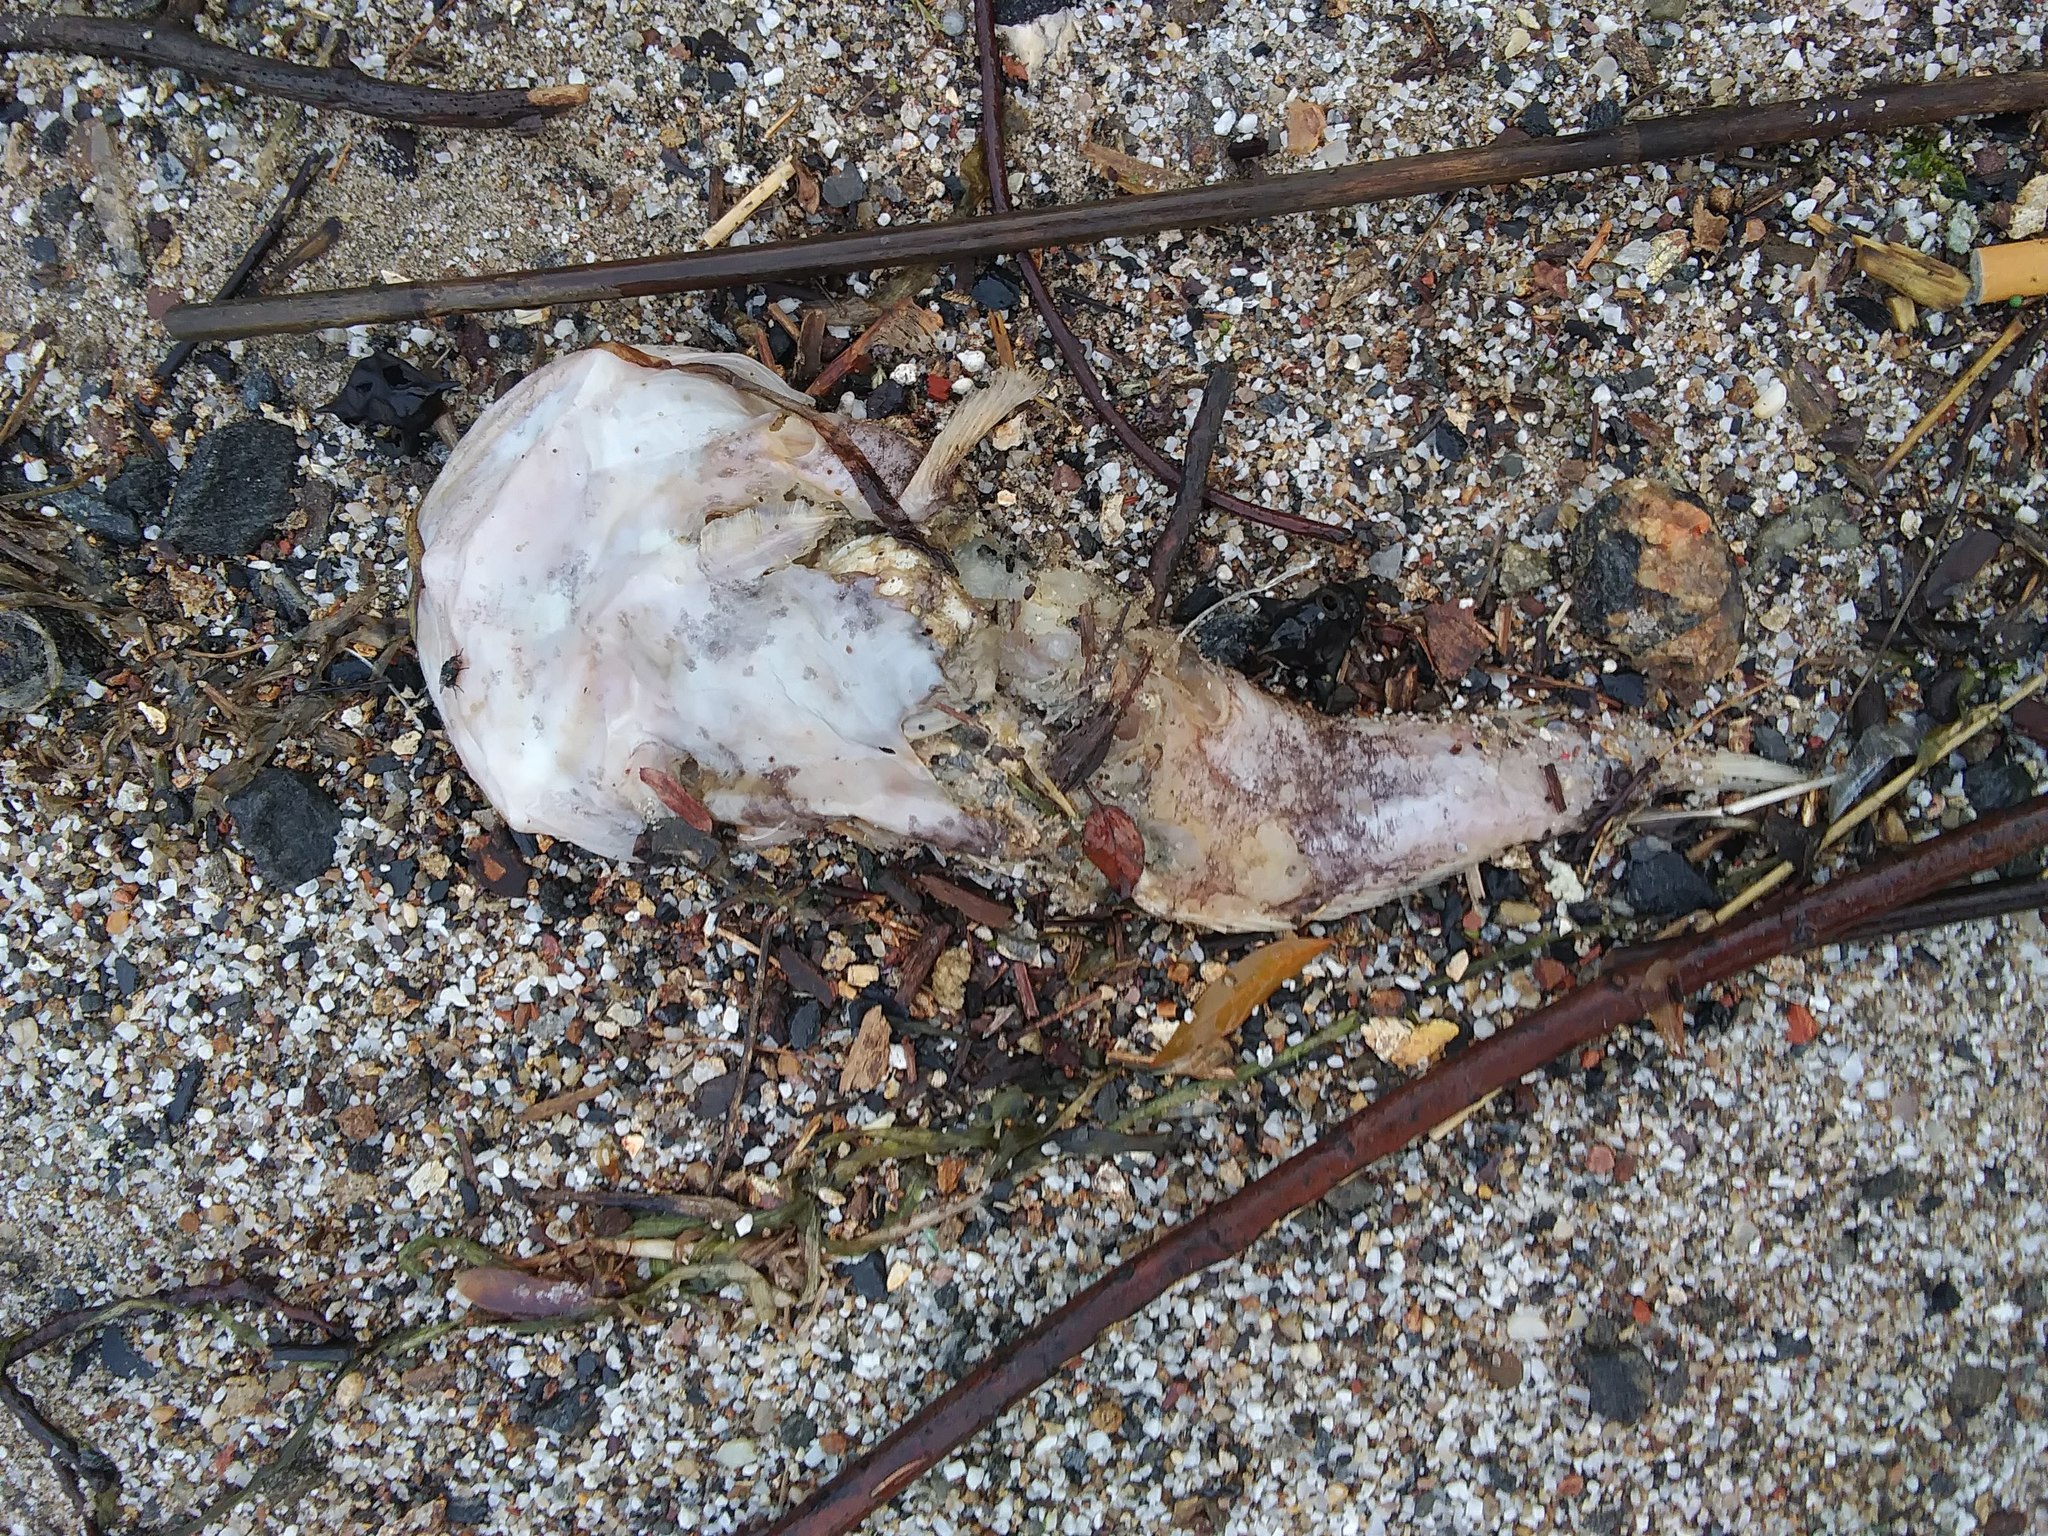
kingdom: Animalia
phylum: Chordata
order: Batrachoidiformes
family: Batrachoididae
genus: Opsanus
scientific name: Opsanus tau
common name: Oyster toadfish
